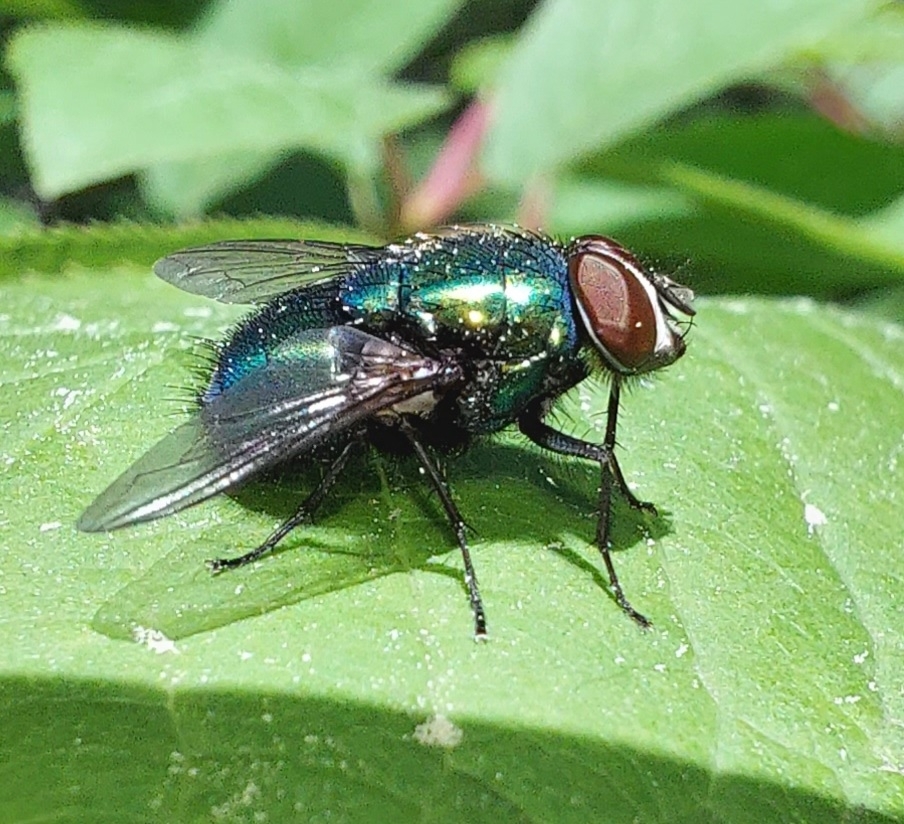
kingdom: Animalia
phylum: Arthropoda
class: Insecta
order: Diptera
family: Calliphoridae
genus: Lucilia
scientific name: Lucilia sericata
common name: Blow fly
